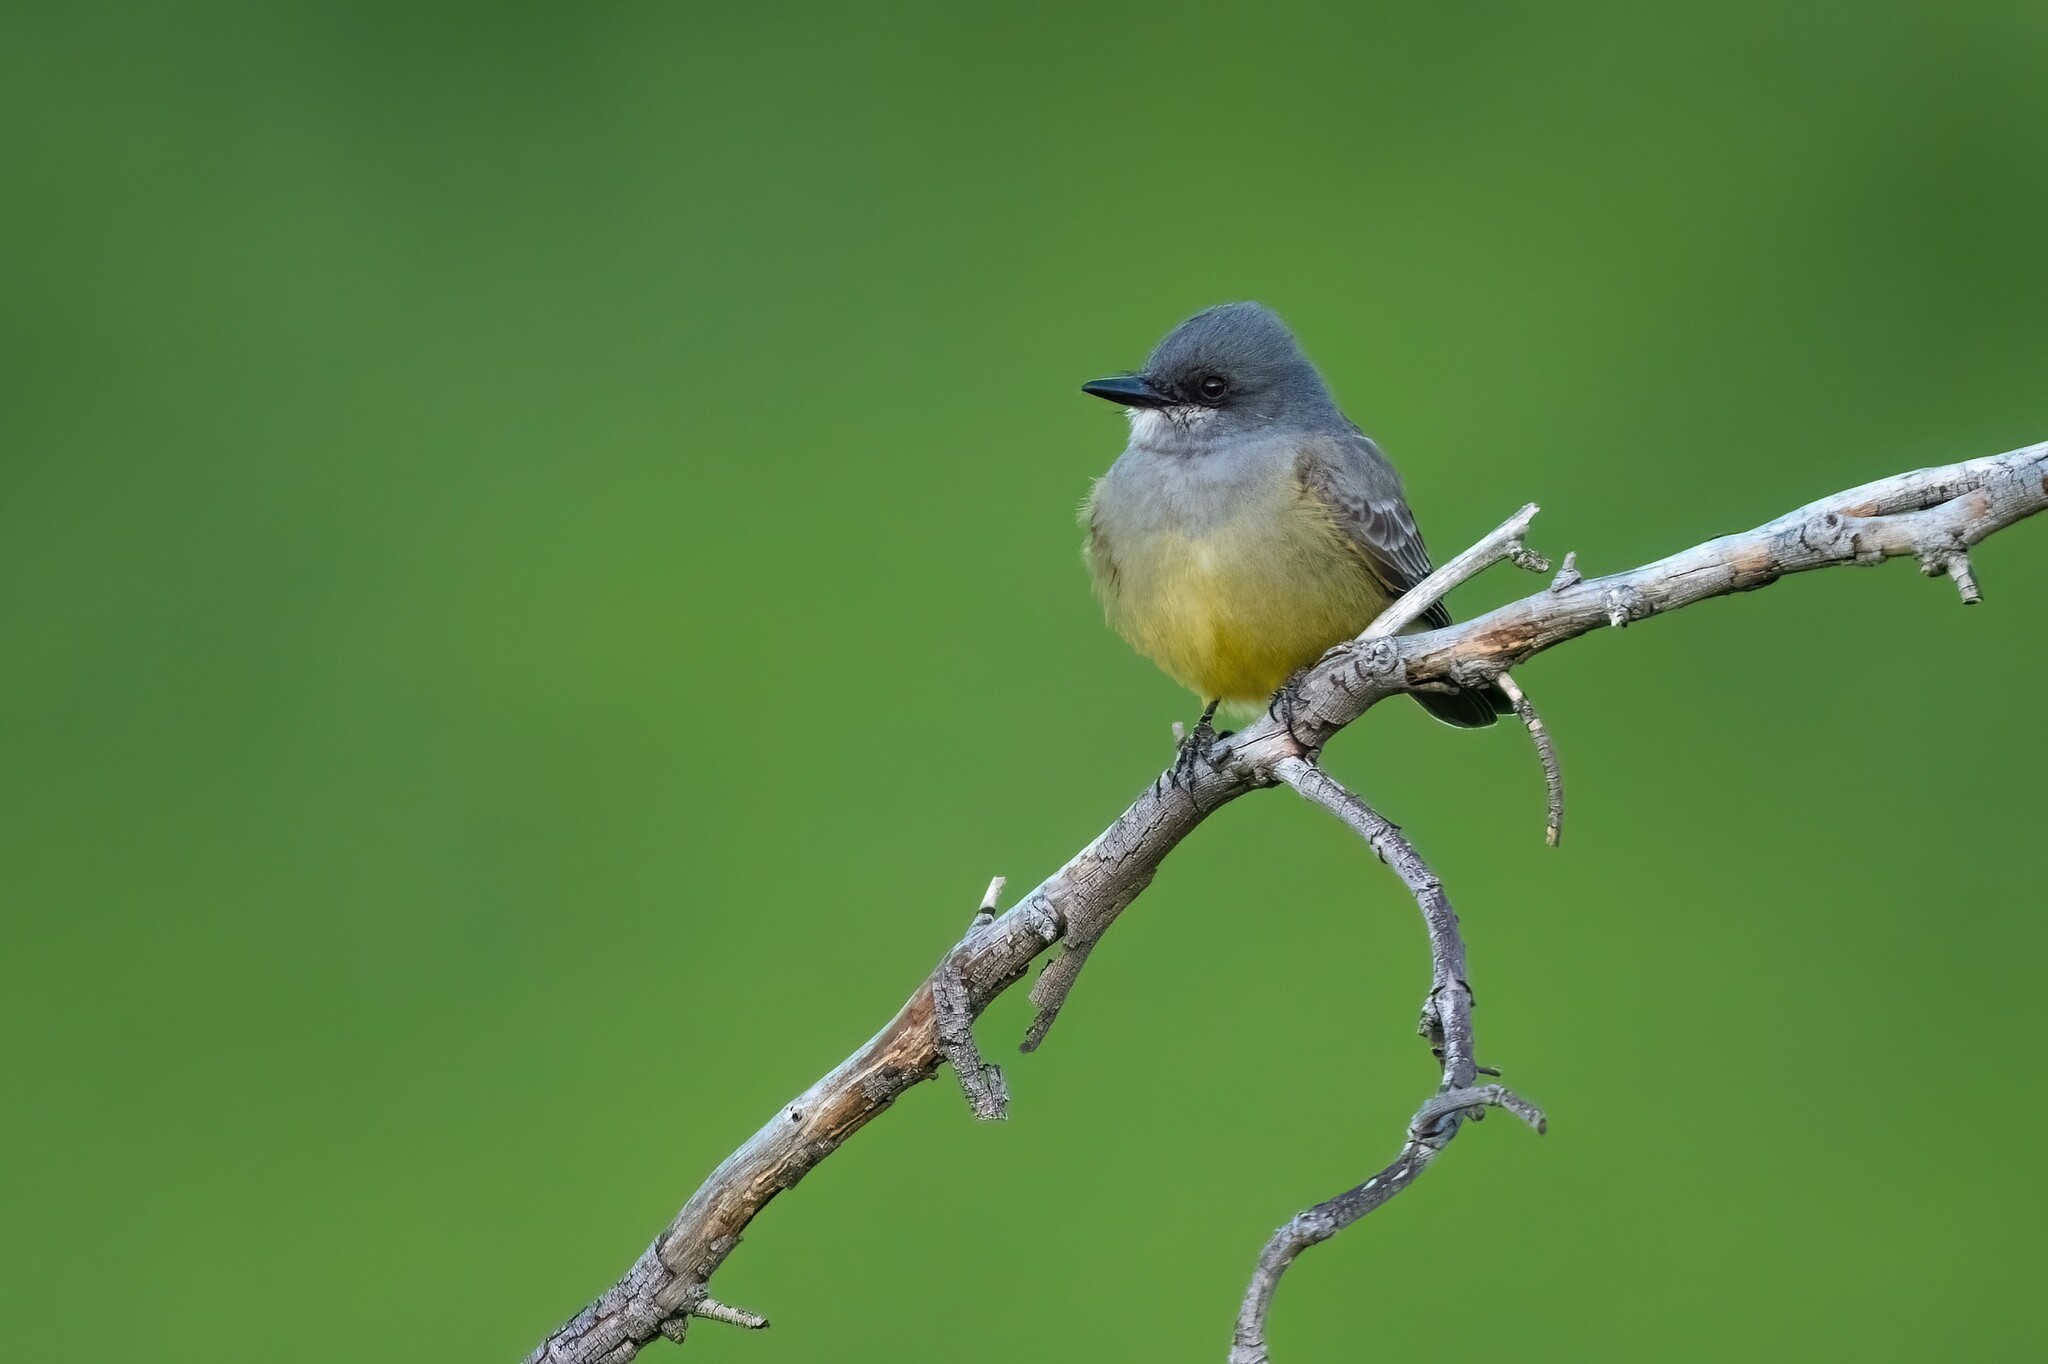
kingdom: Animalia
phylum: Chordata
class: Aves
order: Passeriformes
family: Tyrannidae
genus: Tyrannus
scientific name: Tyrannus vociferans
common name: Cassin's kingbird
